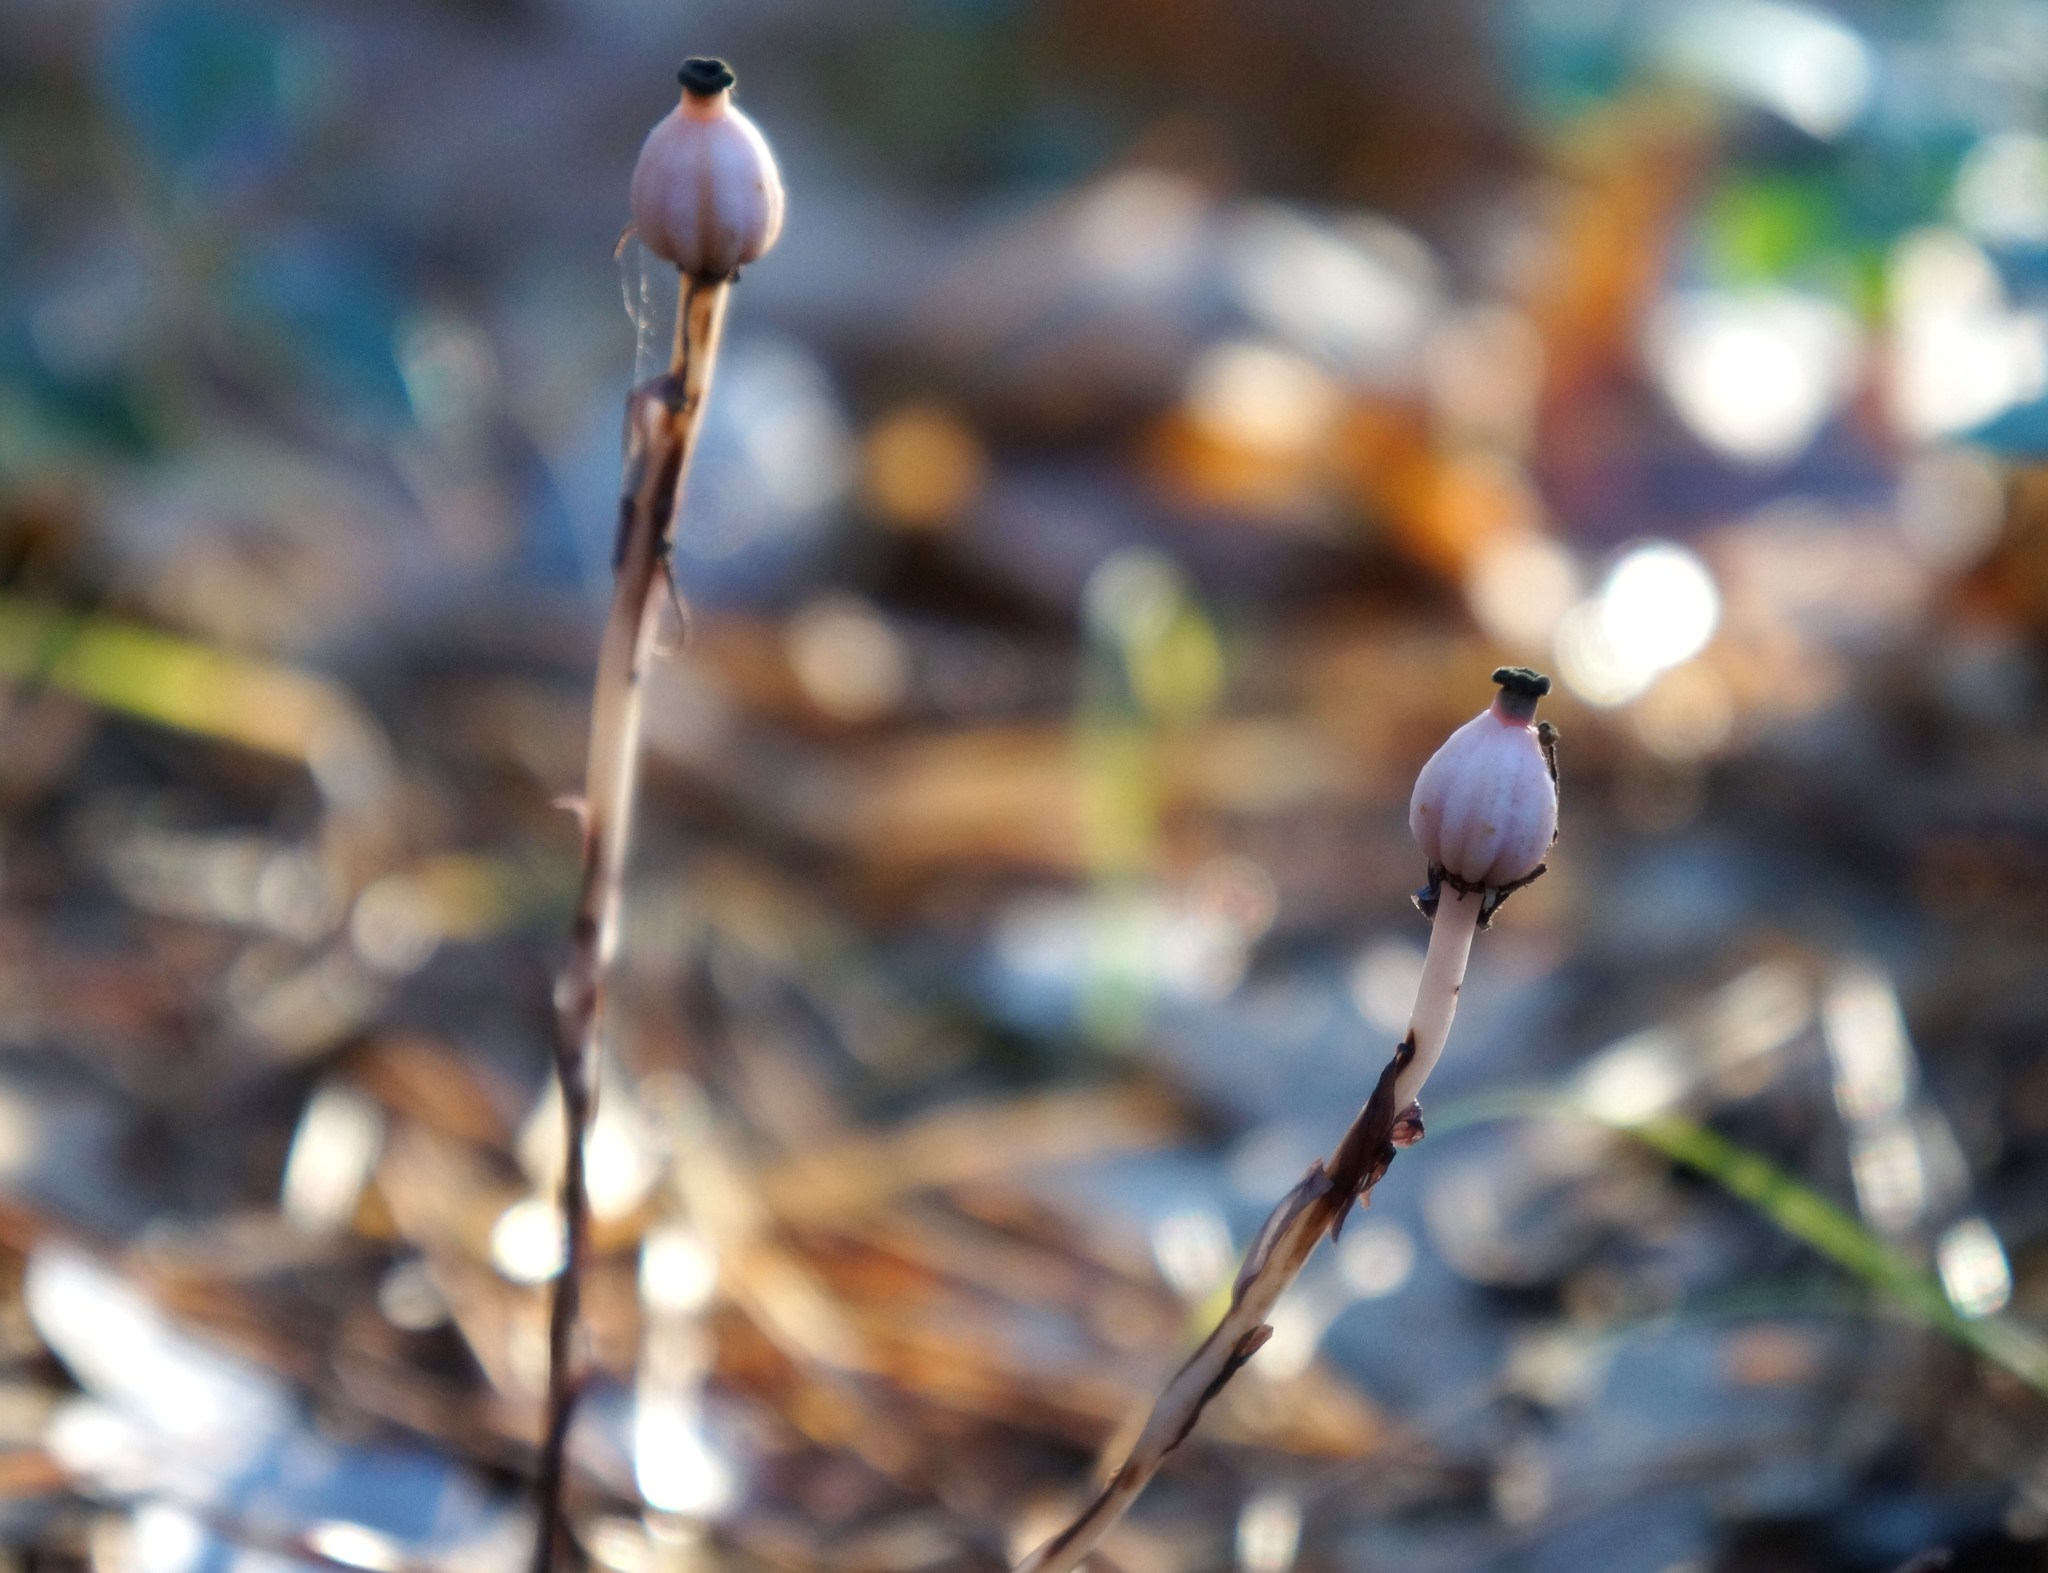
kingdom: Plantae
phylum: Tracheophyta
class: Magnoliopsida
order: Ericales
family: Ericaceae
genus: Monotropa
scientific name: Monotropa uniflora
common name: Convulsion root
